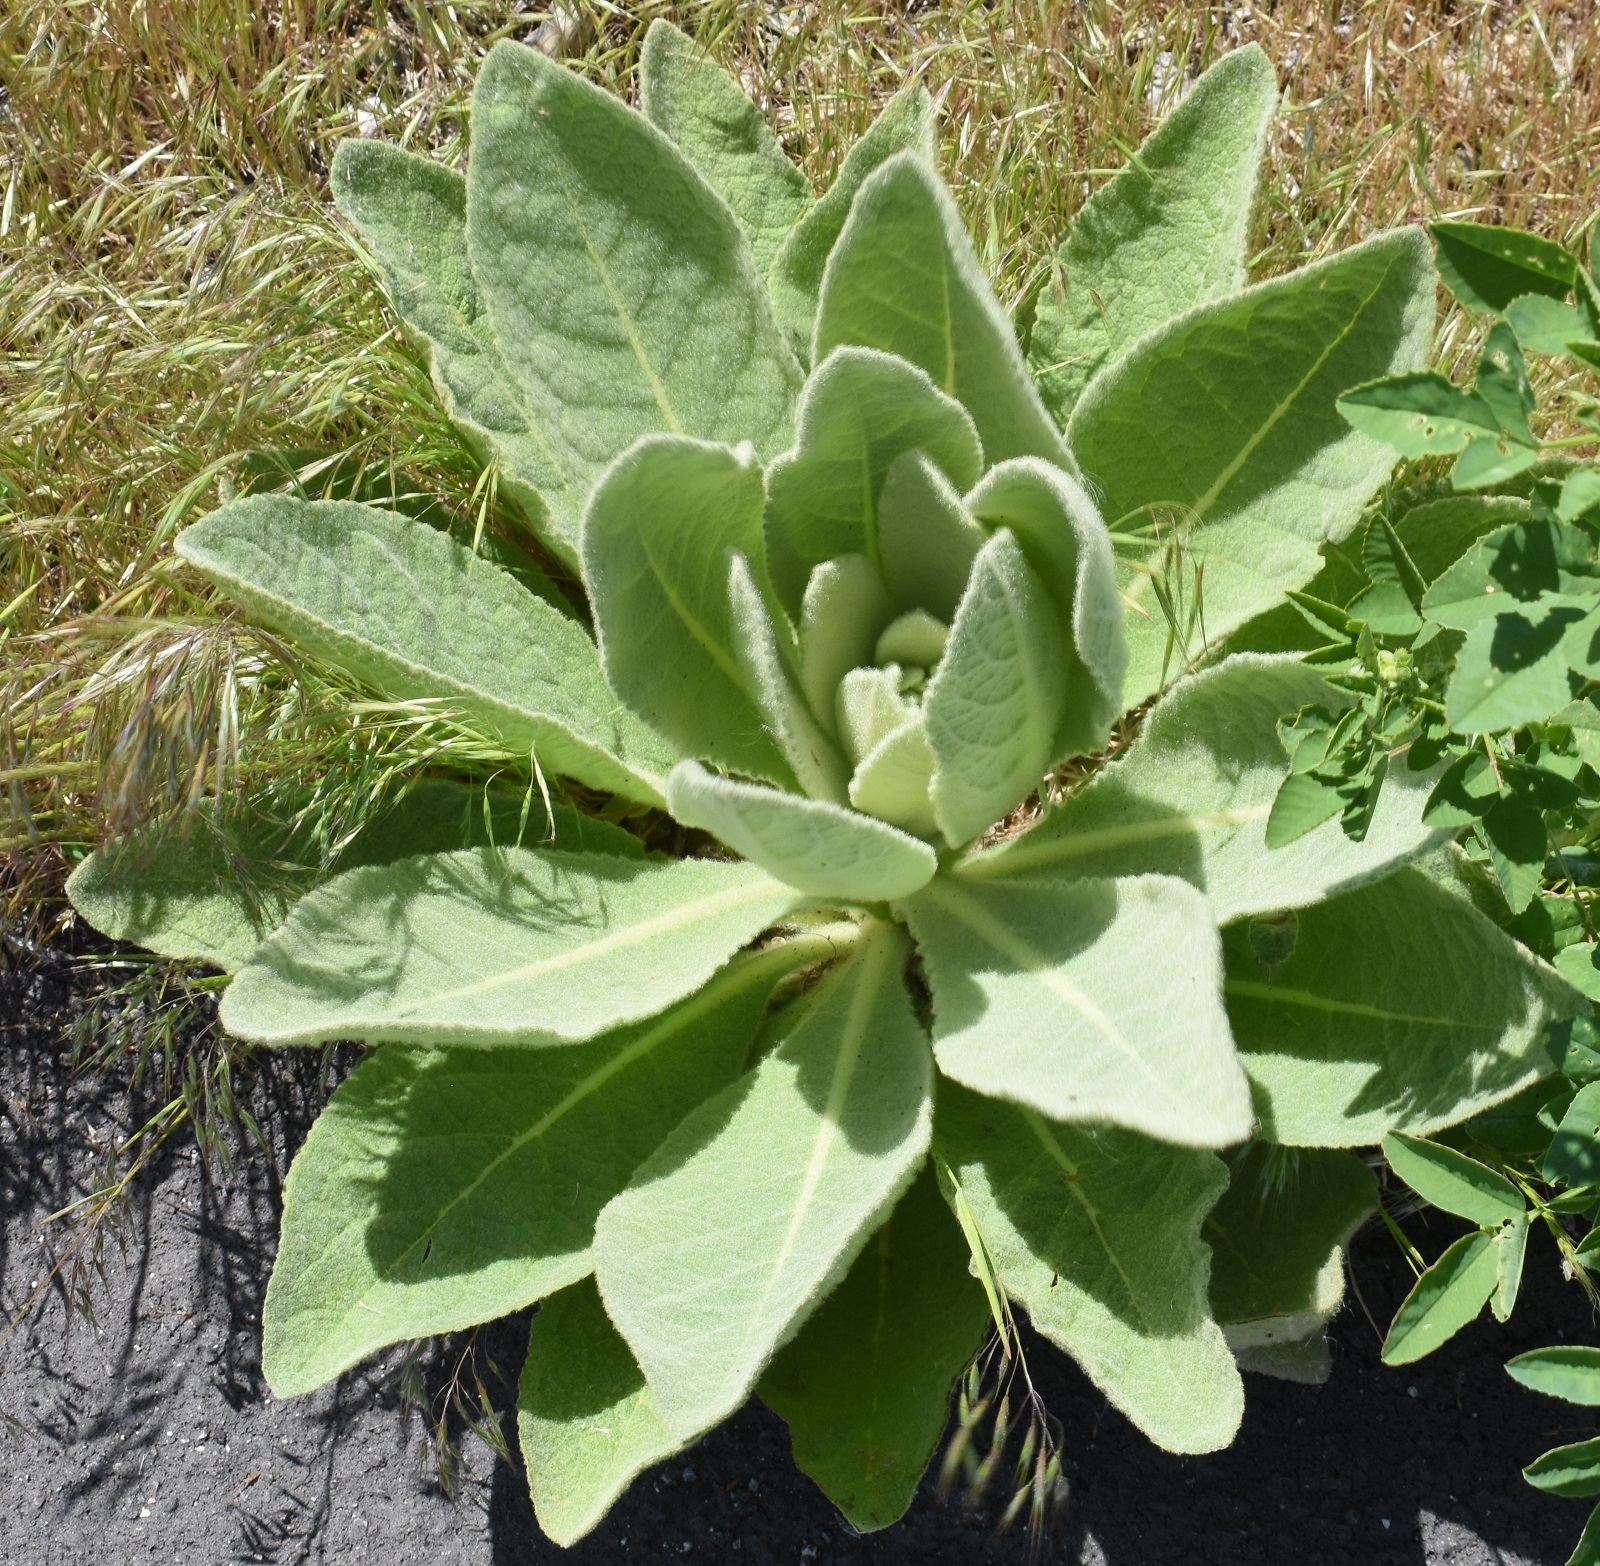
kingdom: Plantae
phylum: Tracheophyta
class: Magnoliopsida
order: Lamiales
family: Scrophulariaceae
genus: Verbascum
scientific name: Verbascum thapsus
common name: Common mullein
